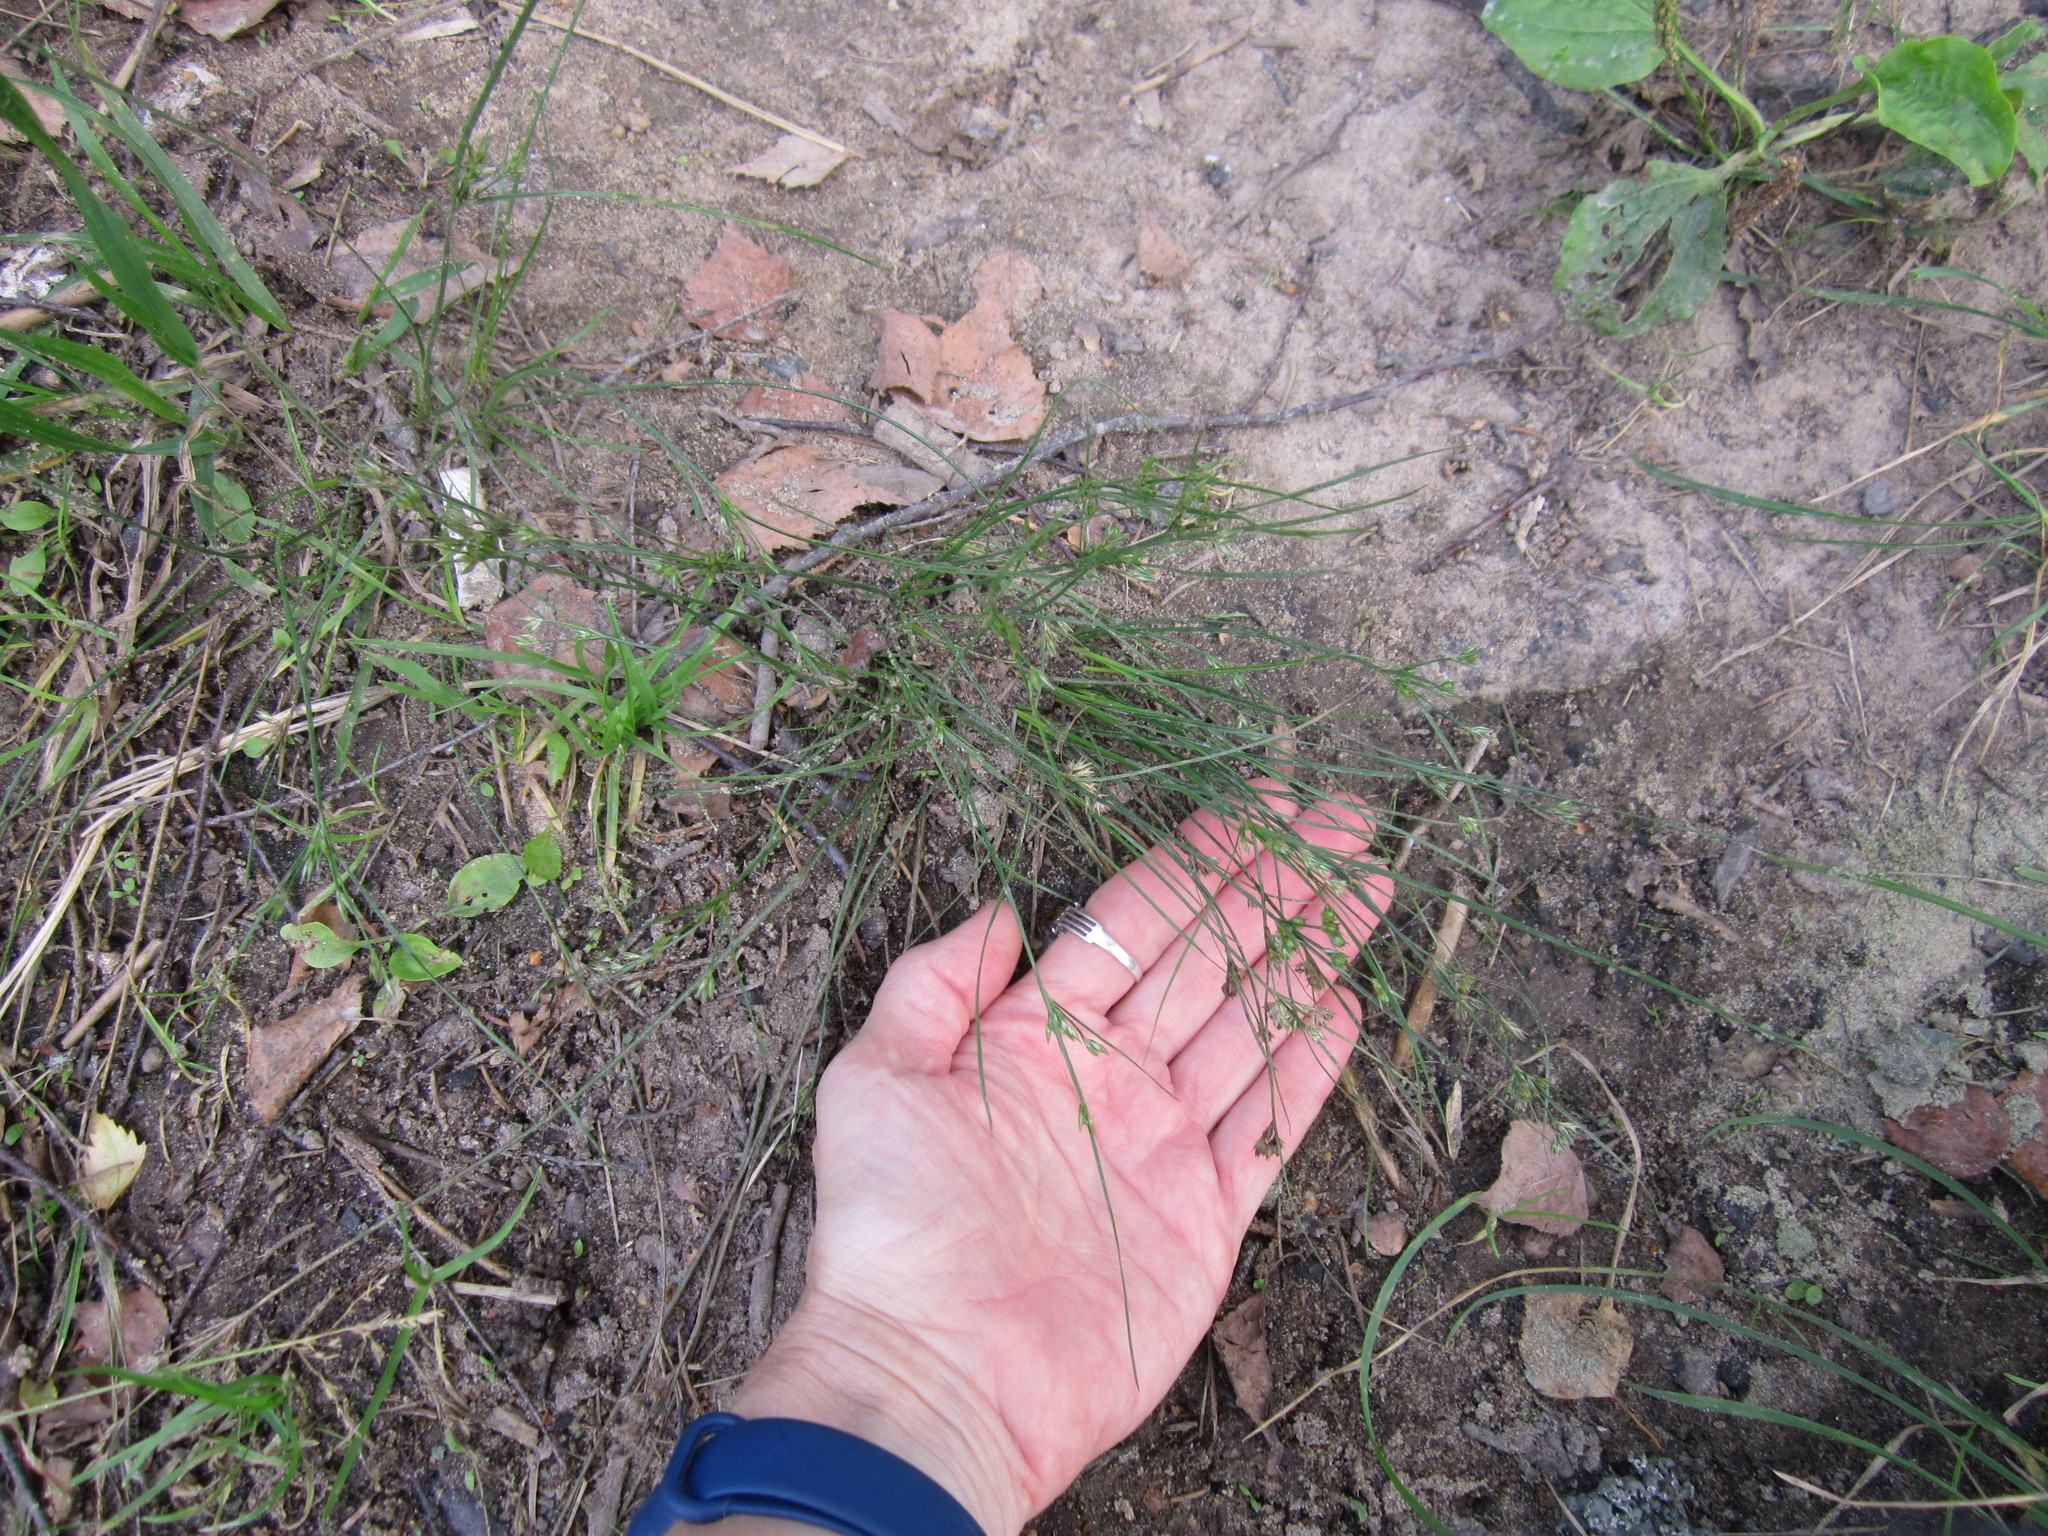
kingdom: Plantae
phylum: Tracheophyta
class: Liliopsida
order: Poales
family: Juncaceae
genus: Juncus
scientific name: Juncus tenuis
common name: Slender rush
